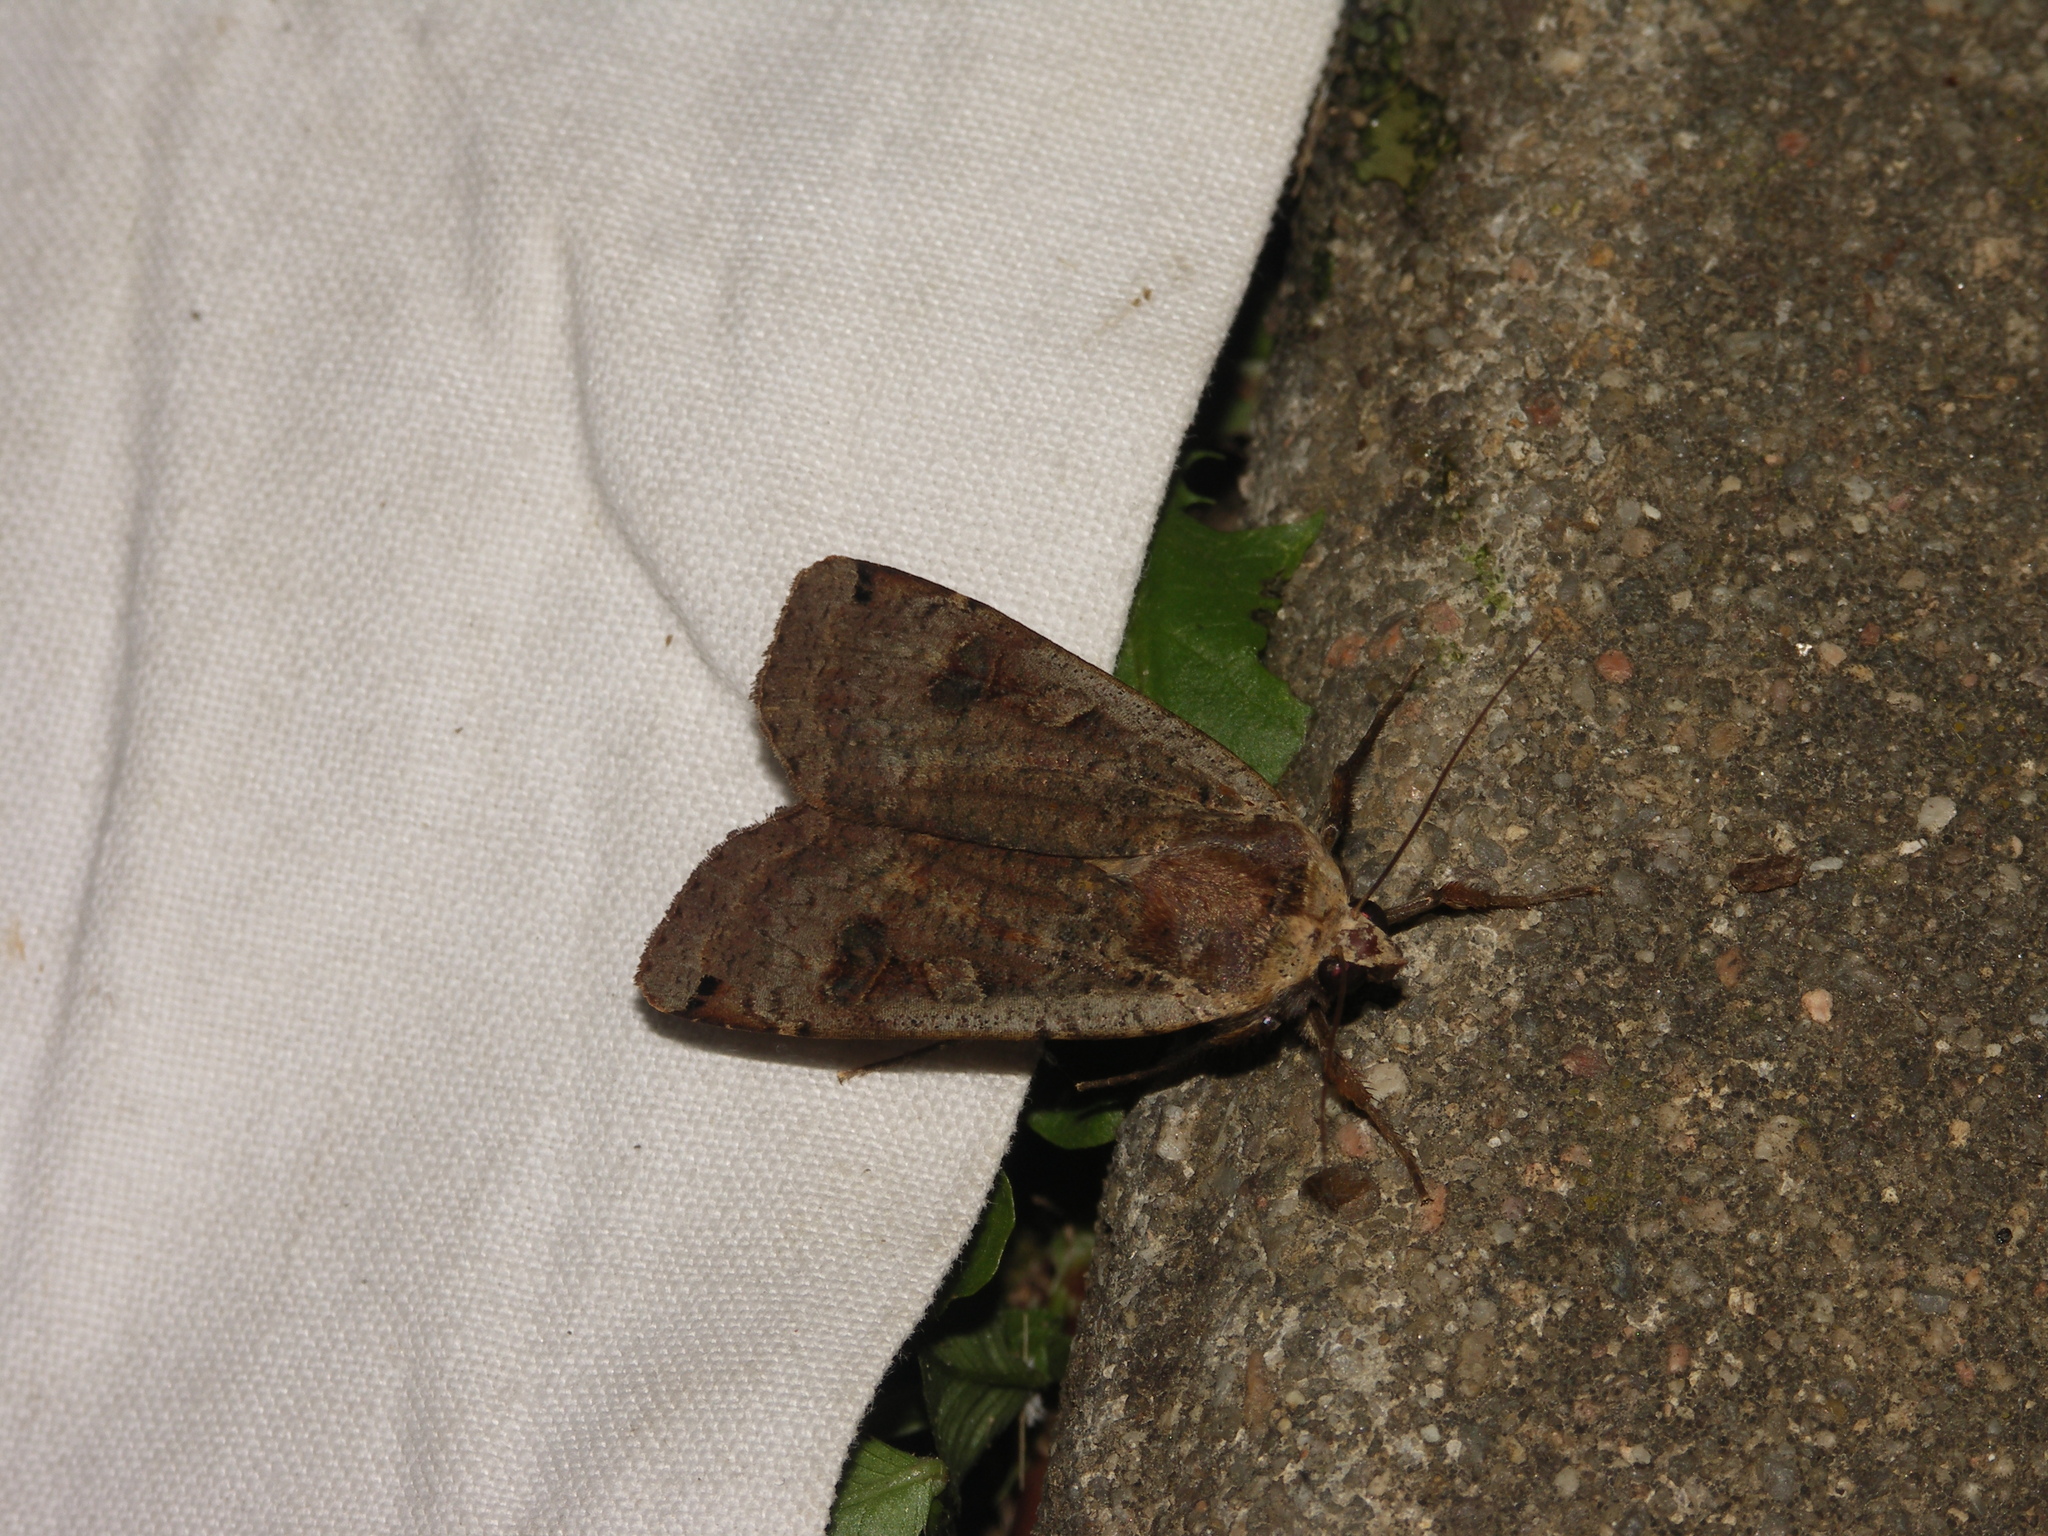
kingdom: Animalia
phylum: Arthropoda
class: Insecta
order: Lepidoptera
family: Noctuidae
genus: Noctua
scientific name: Noctua pronuba
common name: Large yellow underwing
